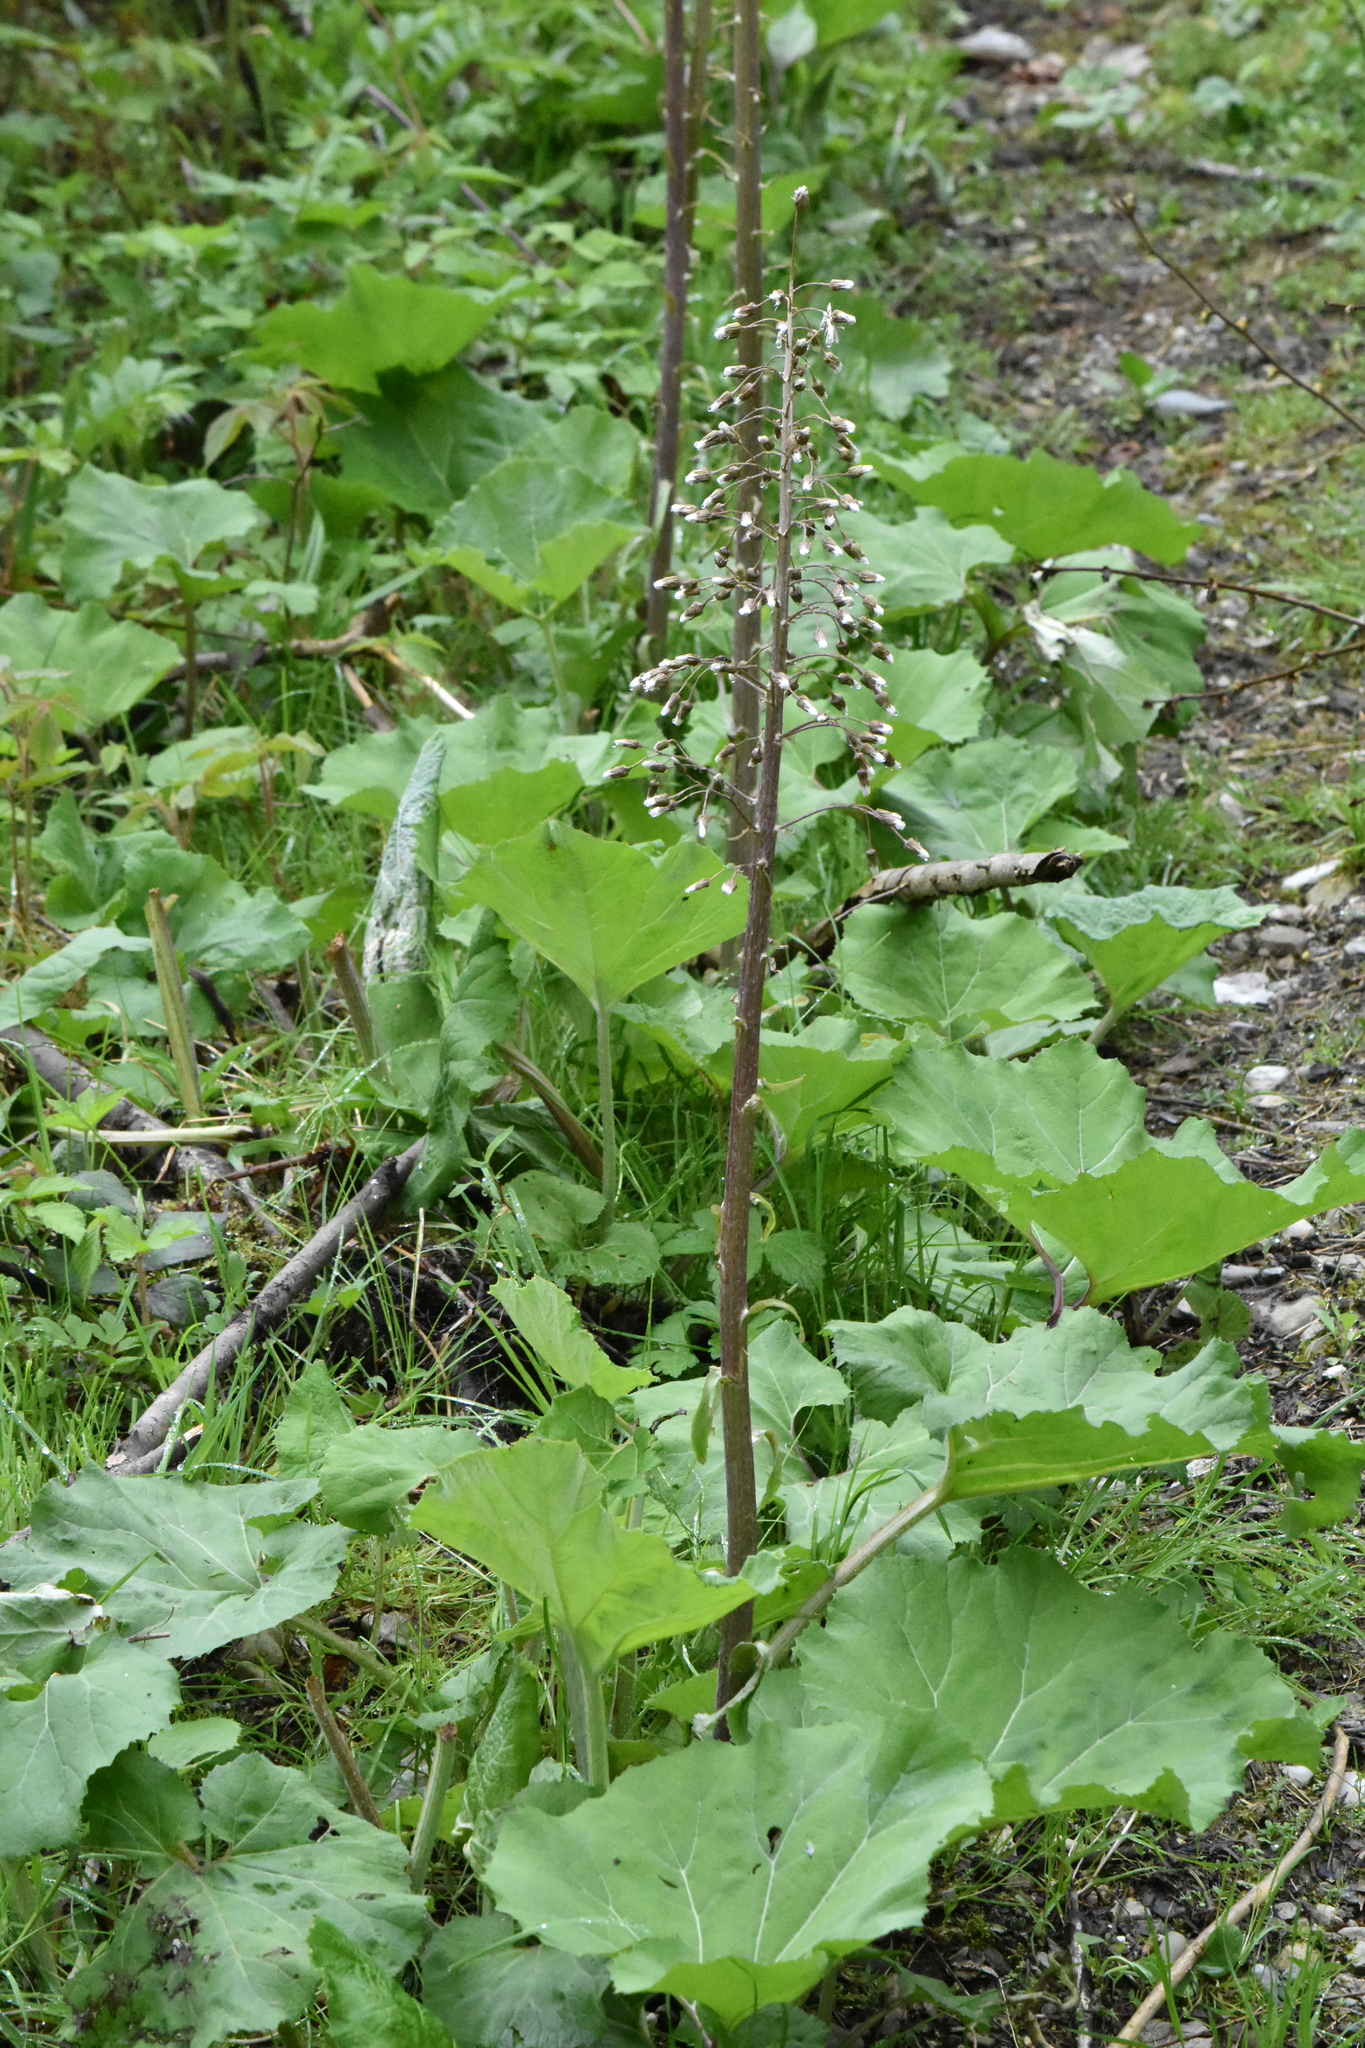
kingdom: Plantae
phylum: Tracheophyta
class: Magnoliopsida
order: Asterales
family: Asteraceae
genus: Petasites
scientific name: Petasites hybridus
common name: Butterbur
